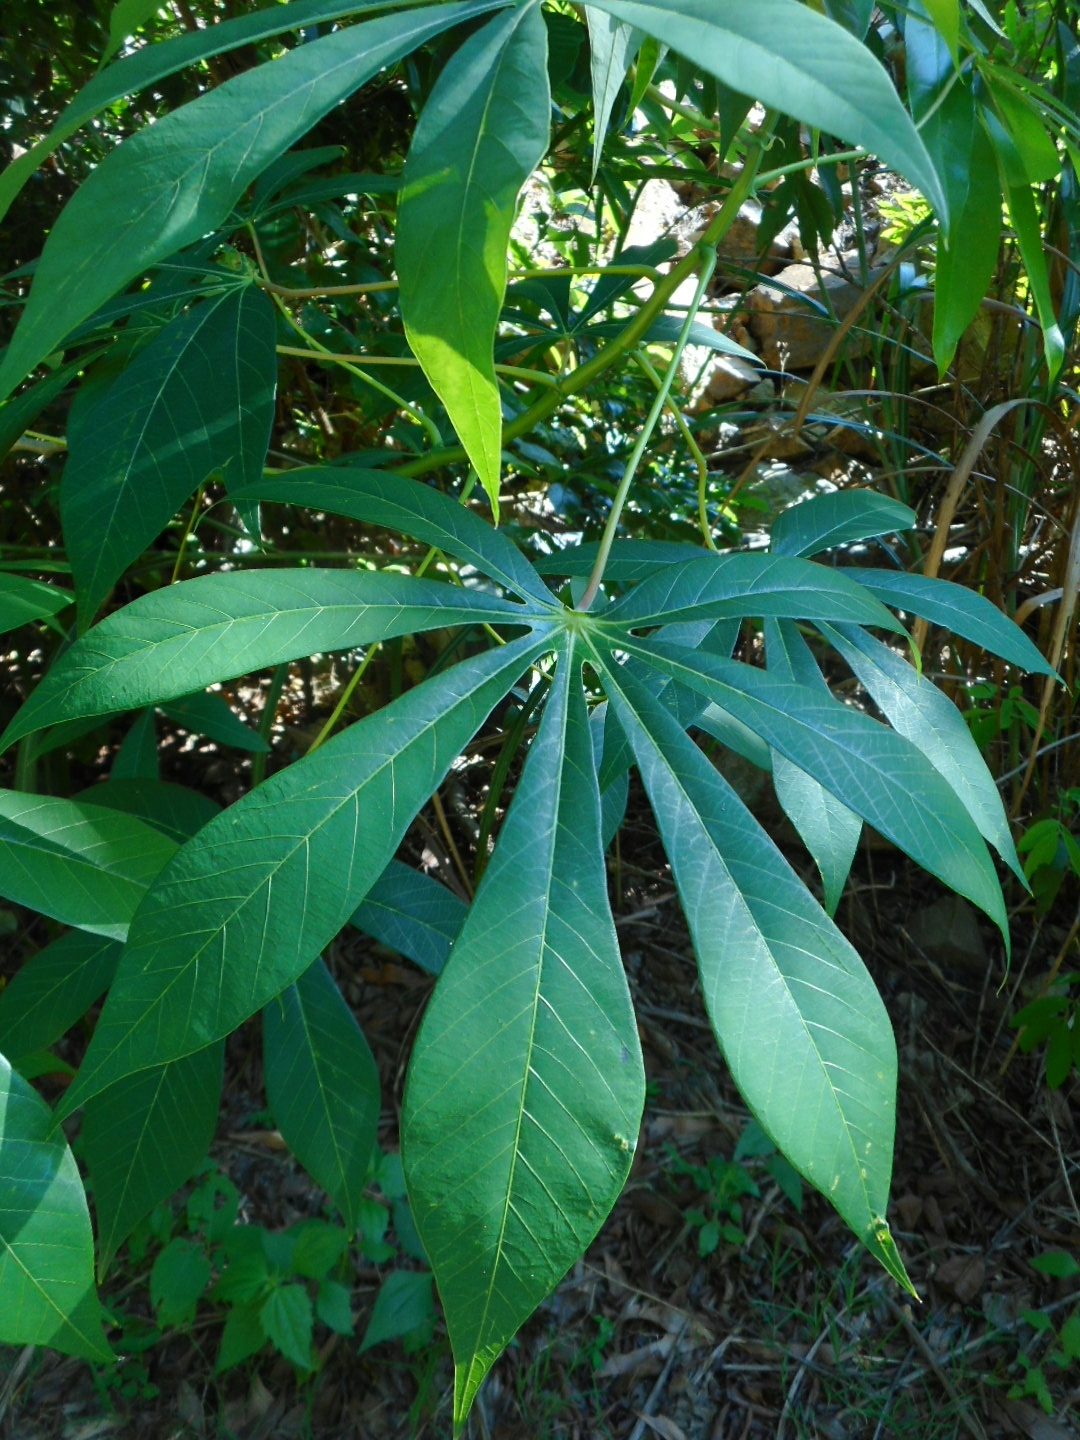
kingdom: Plantae
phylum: Tracheophyta
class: Magnoliopsida
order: Malpighiales
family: Euphorbiaceae
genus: Manihot
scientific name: Manihot esculenta
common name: Cassava
